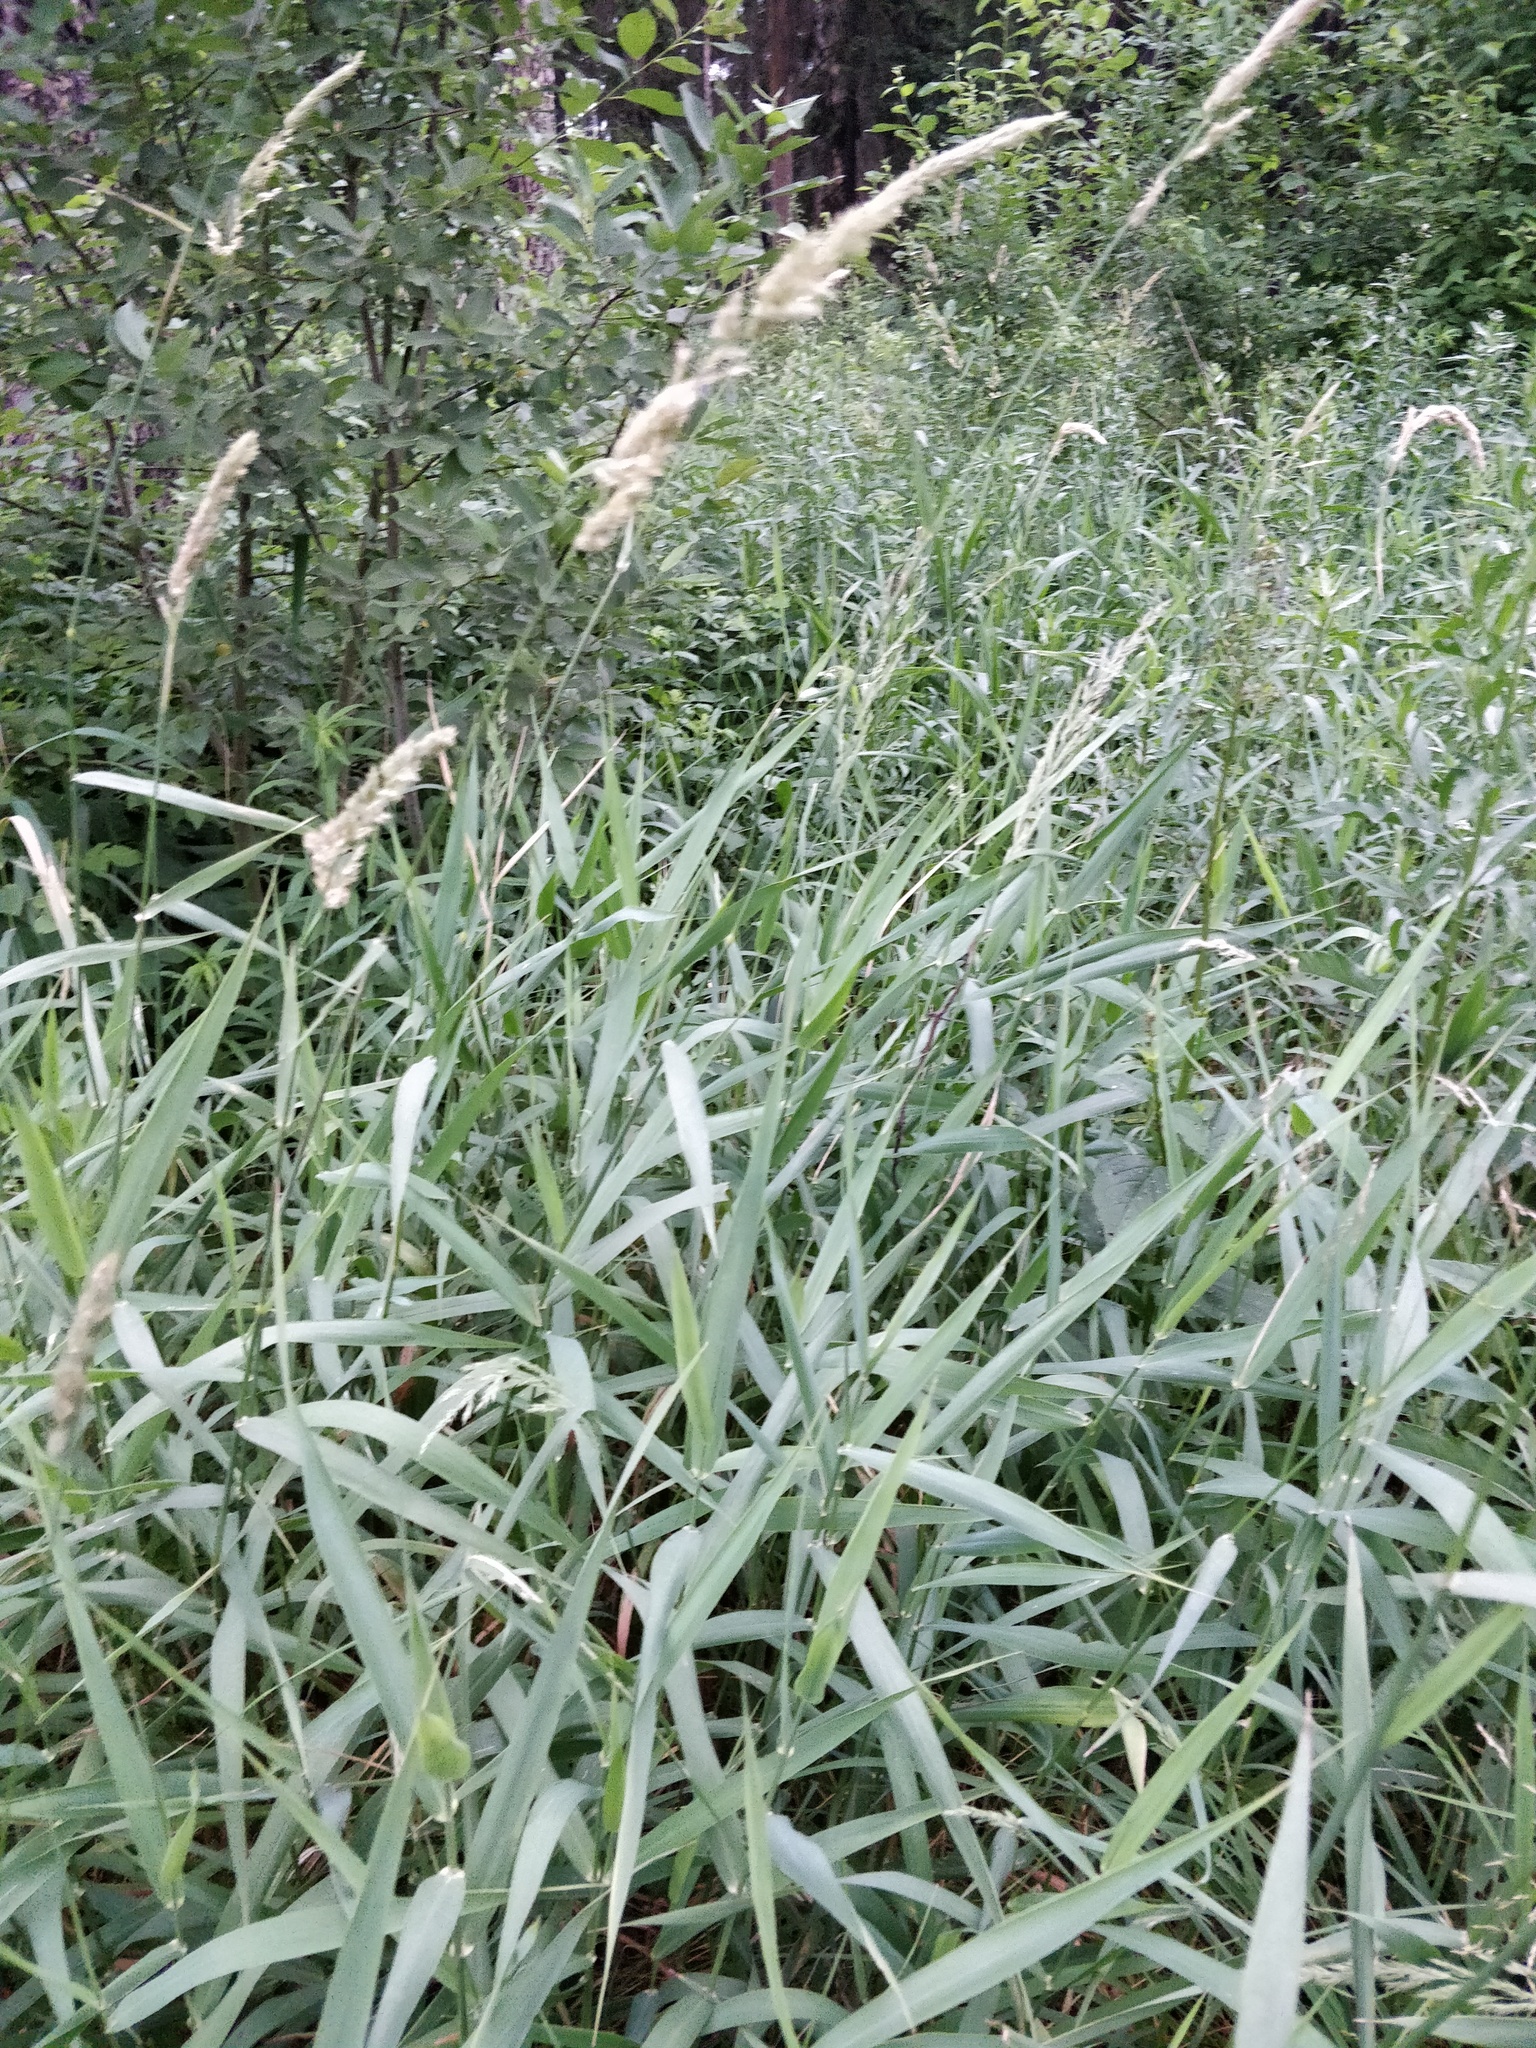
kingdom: Plantae
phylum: Tracheophyta
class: Liliopsida
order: Poales
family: Poaceae
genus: Calamagrostis
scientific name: Calamagrostis epigejos
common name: Wood small-reed
